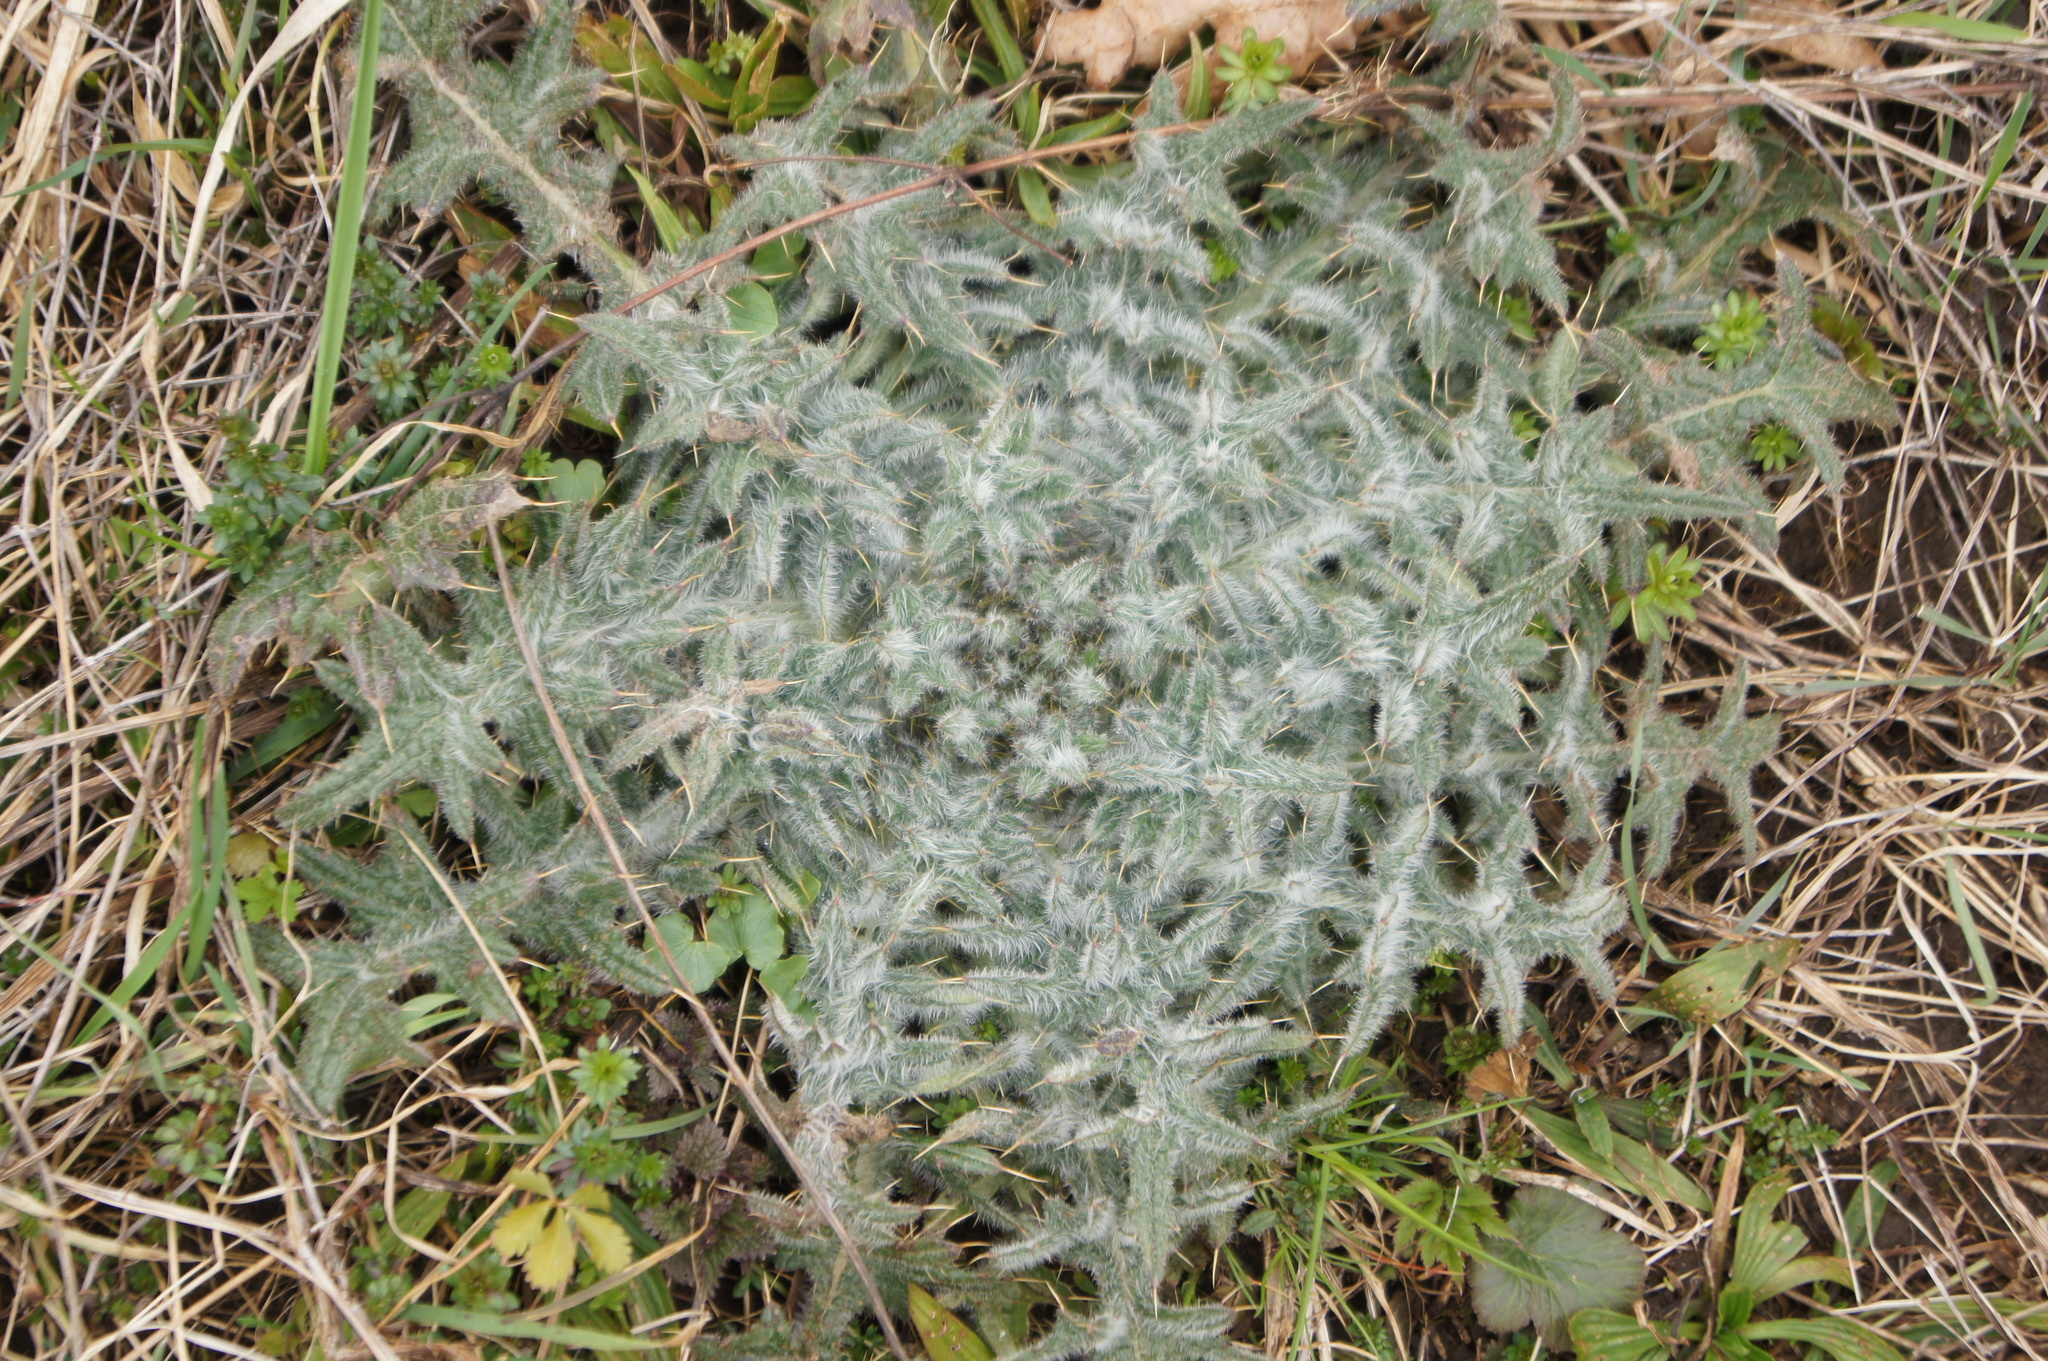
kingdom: Plantae
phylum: Tracheophyta
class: Magnoliopsida
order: Asterales
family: Asteraceae
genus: Cirsium
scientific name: Cirsium vulgare
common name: Bull thistle
